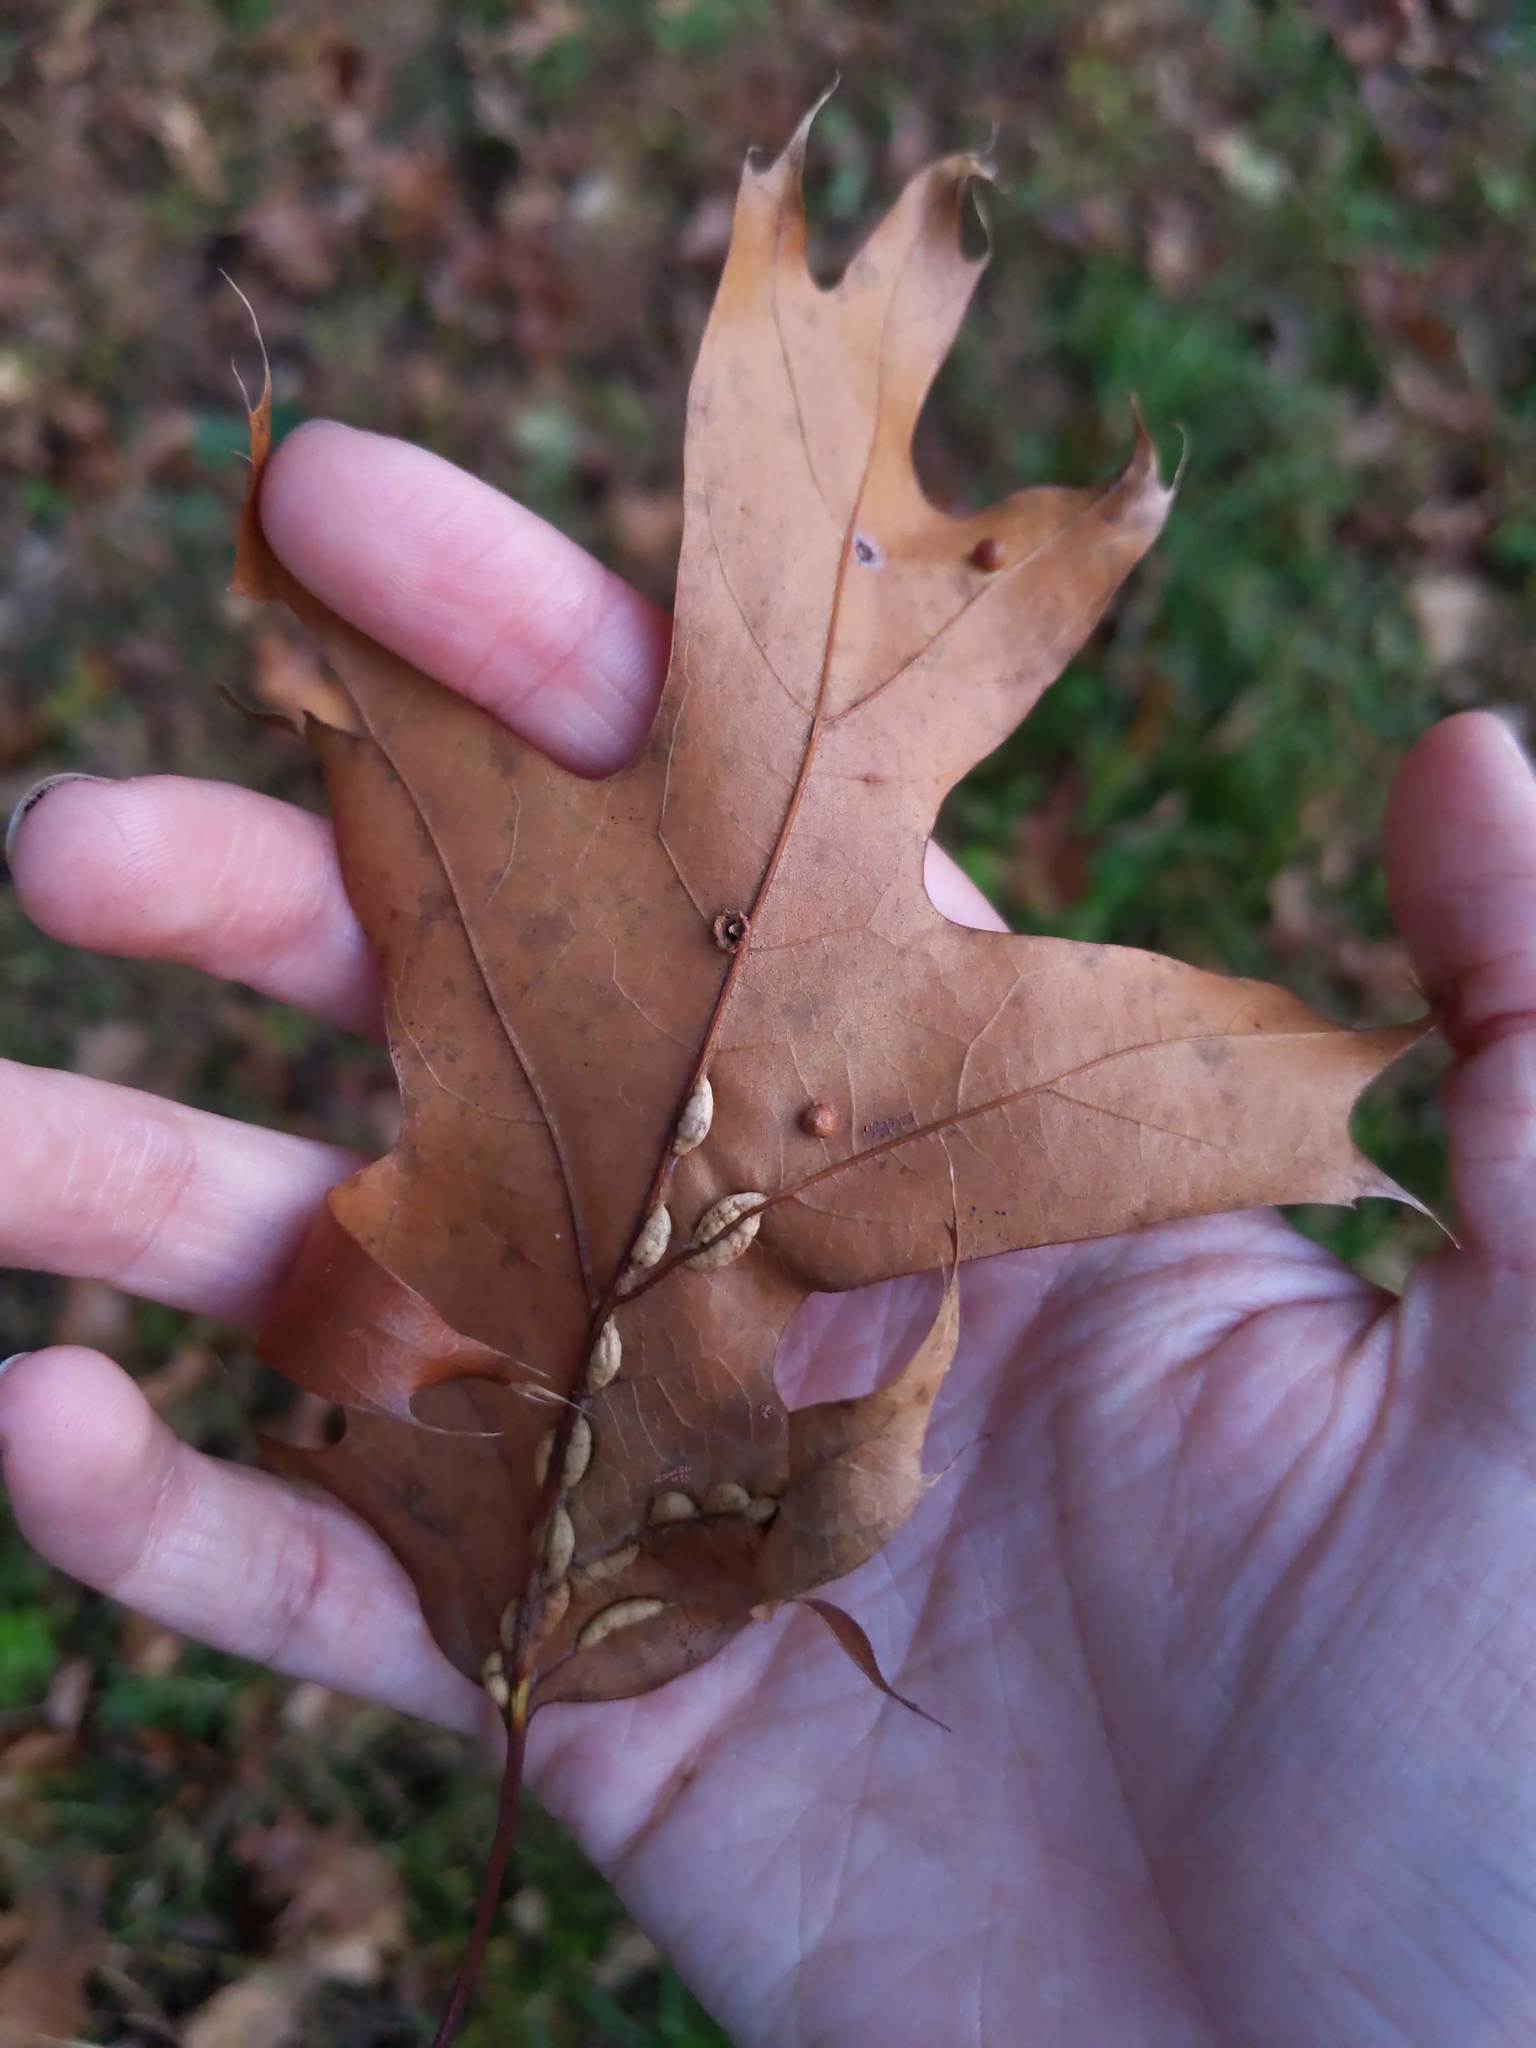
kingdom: Animalia
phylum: Arthropoda
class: Insecta
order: Diptera
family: Cecidomyiidae
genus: Macrodiplosis
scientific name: Macrodiplosis q-orucum
